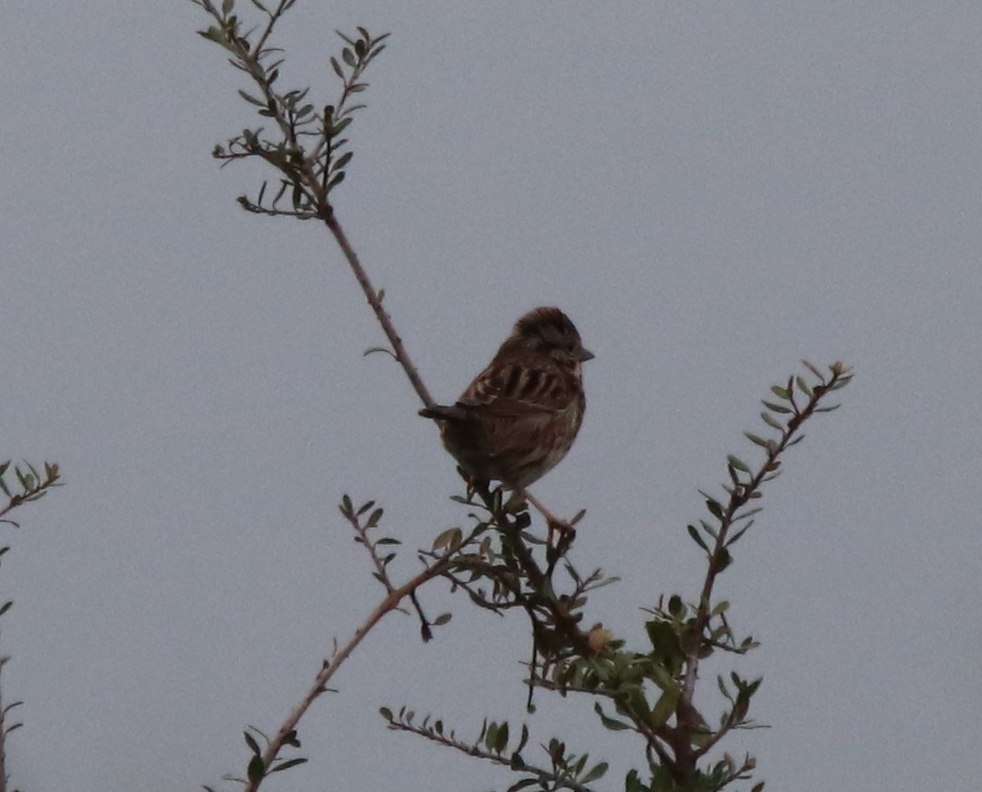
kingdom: Animalia
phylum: Chordata
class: Aves
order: Passeriformes
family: Passerellidae
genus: Melospiza
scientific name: Melospiza georgiana
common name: Swamp sparrow
